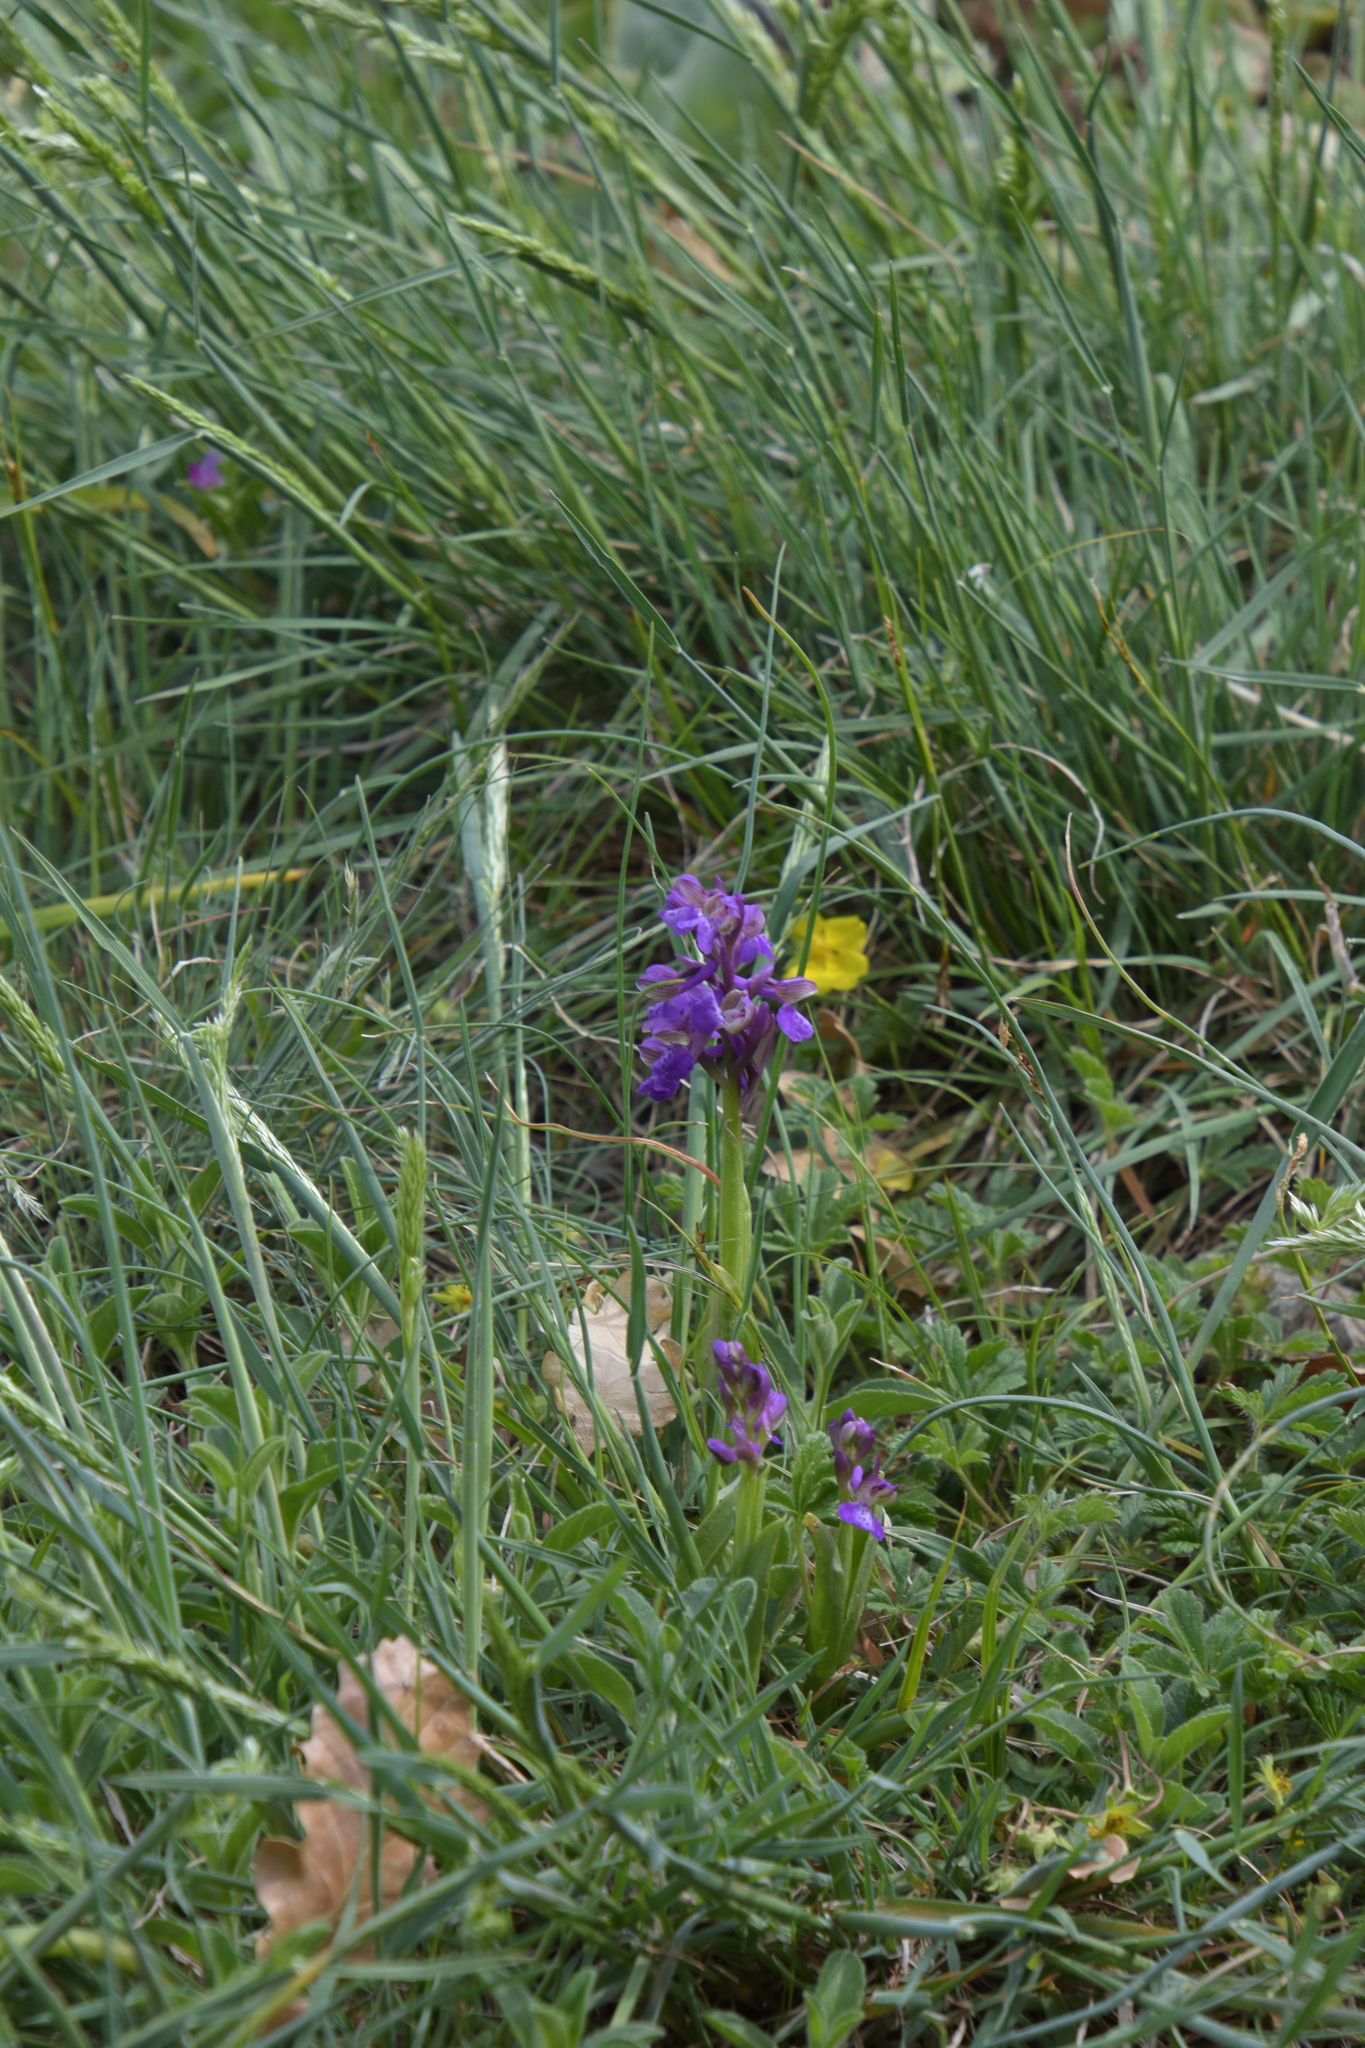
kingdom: Plantae
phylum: Tracheophyta
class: Liliopsida
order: Asparagales
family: Orchidaceae
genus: Anacamptis
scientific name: Anacamptis morio
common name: Green-winged orchid
